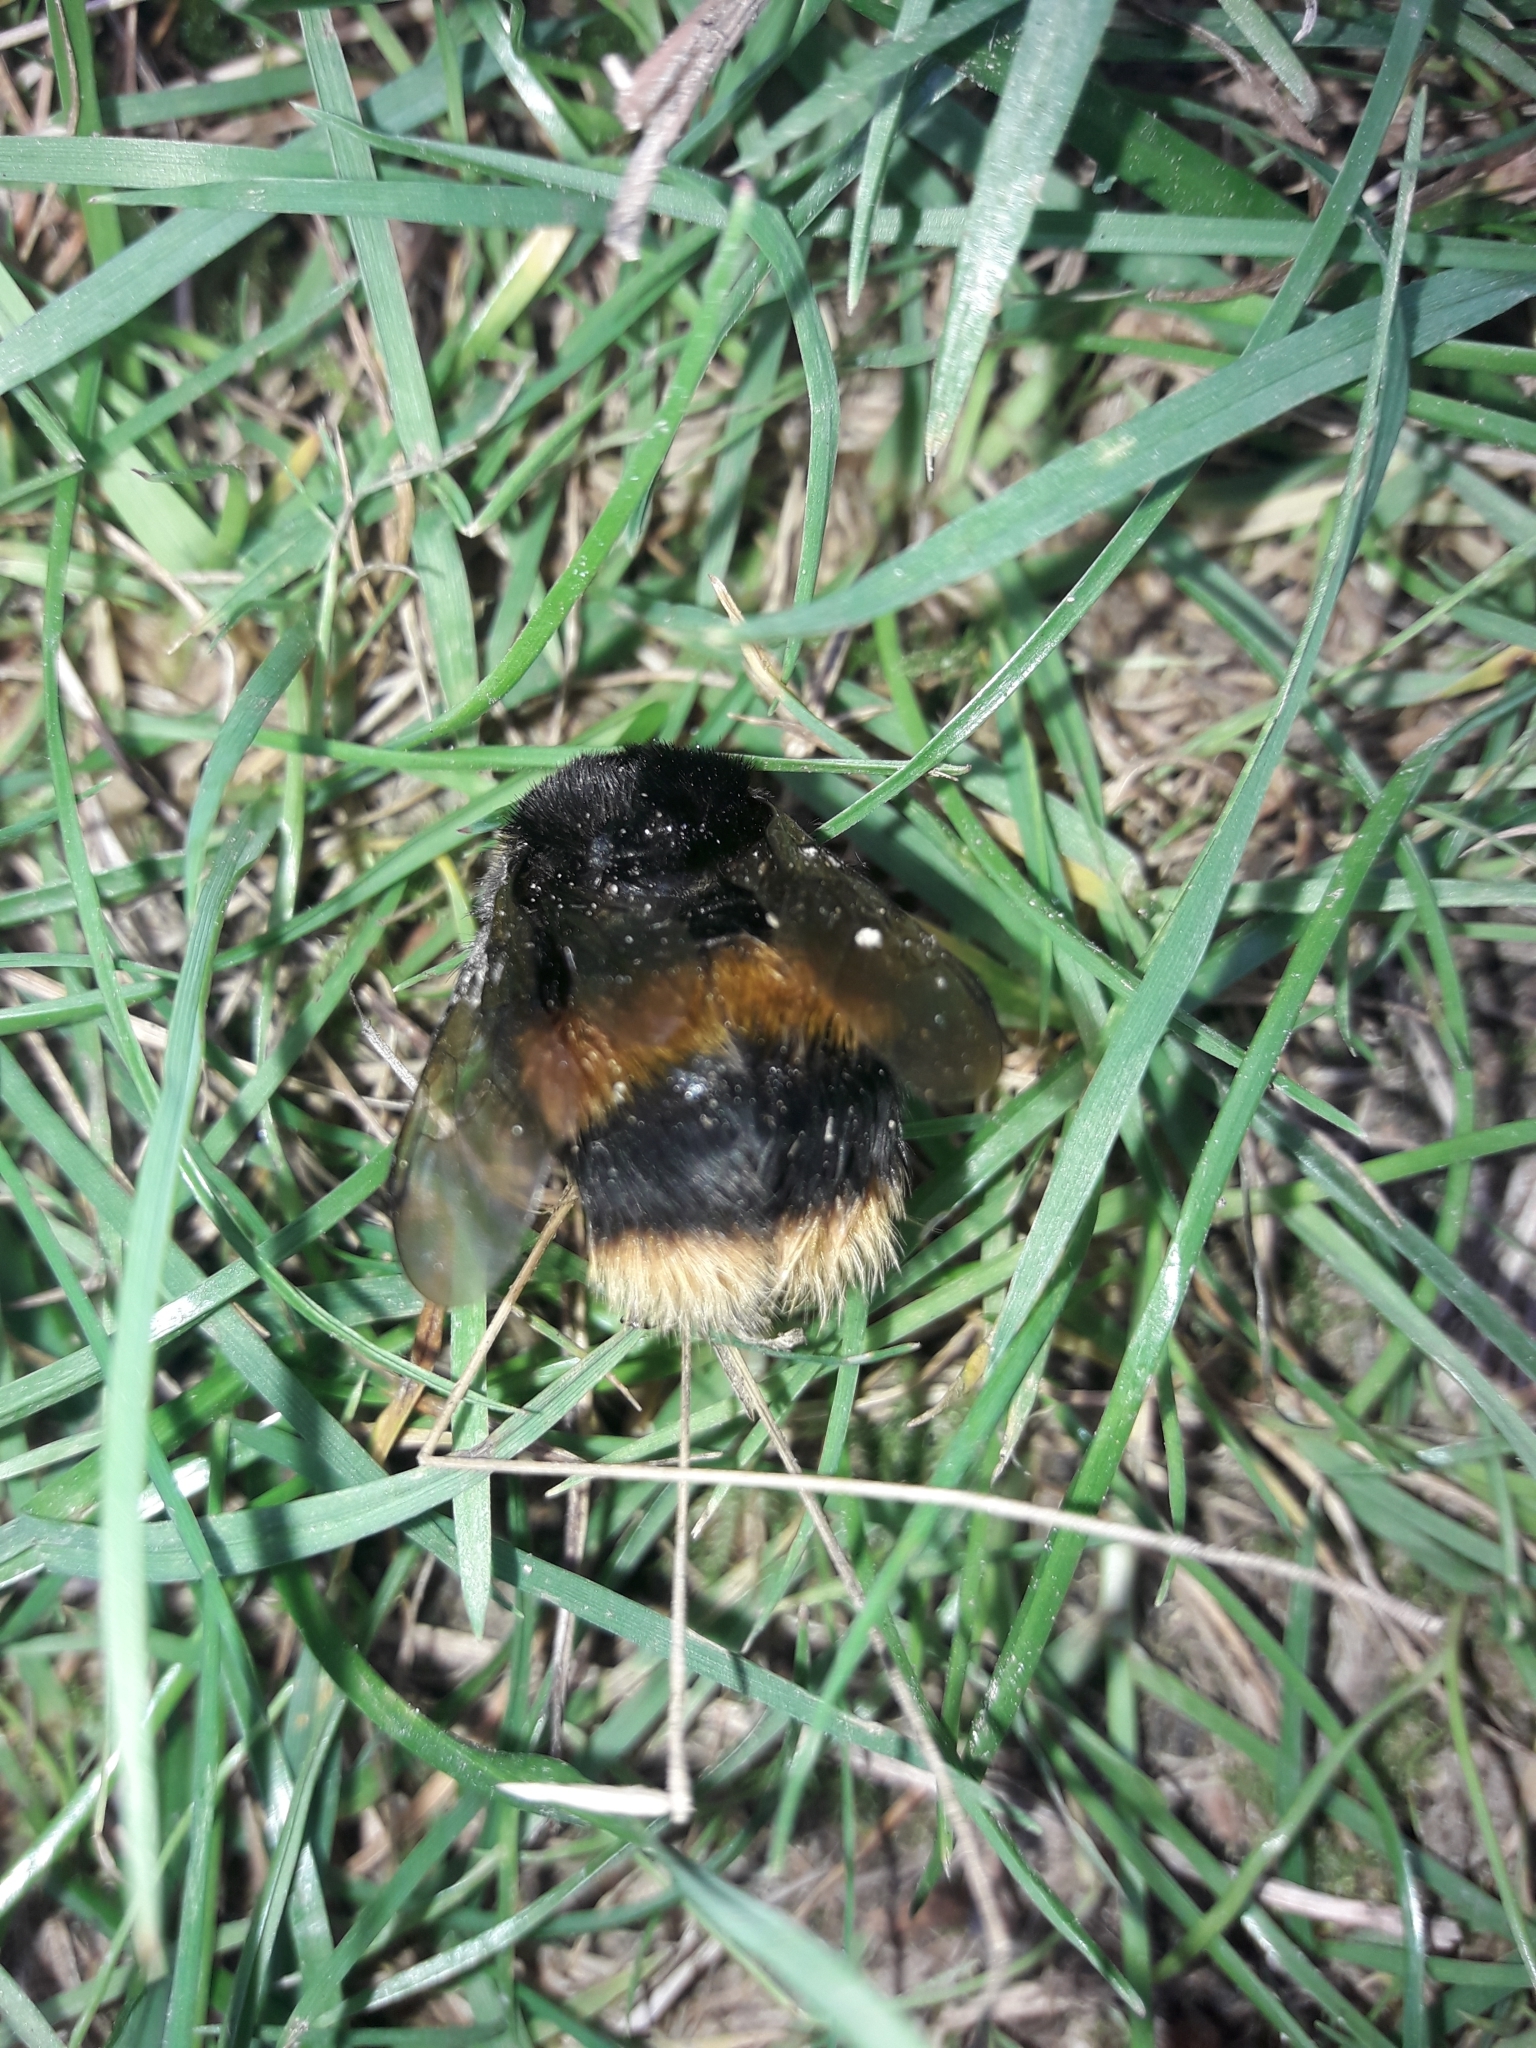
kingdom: Animalia
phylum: Arthropoda
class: Insecta
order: Hymenoptera
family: Apidae
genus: Bombus
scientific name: Bombus terrestris
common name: Buff-tailed bumblebee
